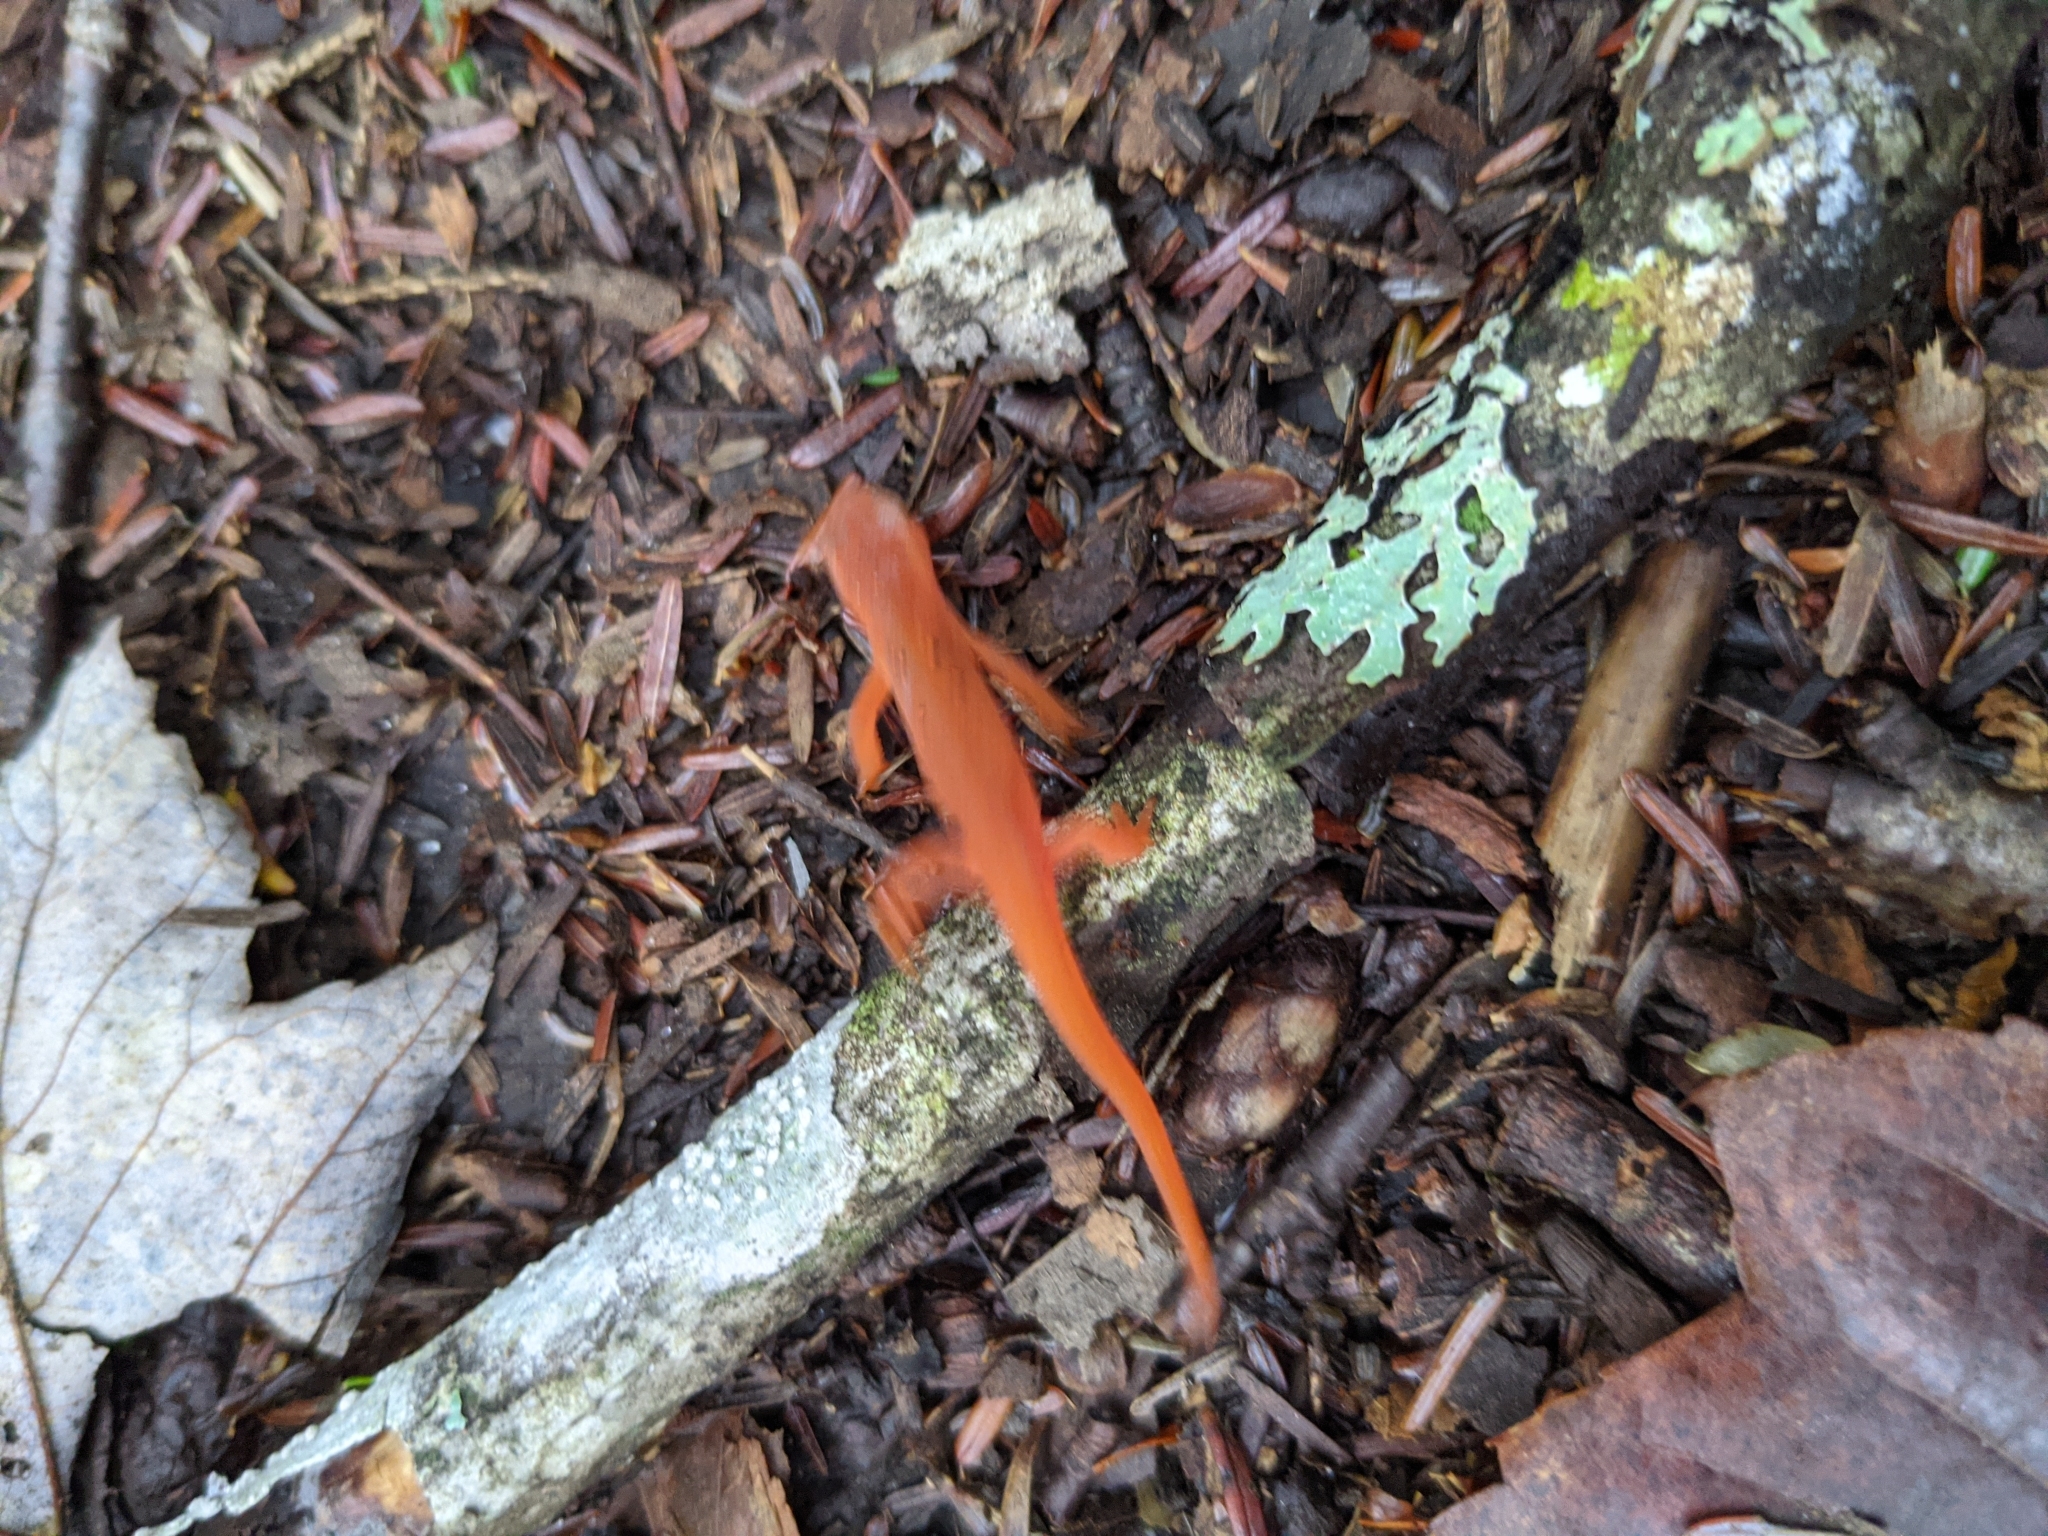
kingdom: Animalia
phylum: Chordata
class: Amphibia
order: Caudata
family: Salamandridae
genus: Notophthalmus
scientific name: Notophthalmus viridescens
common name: Eastern newt
